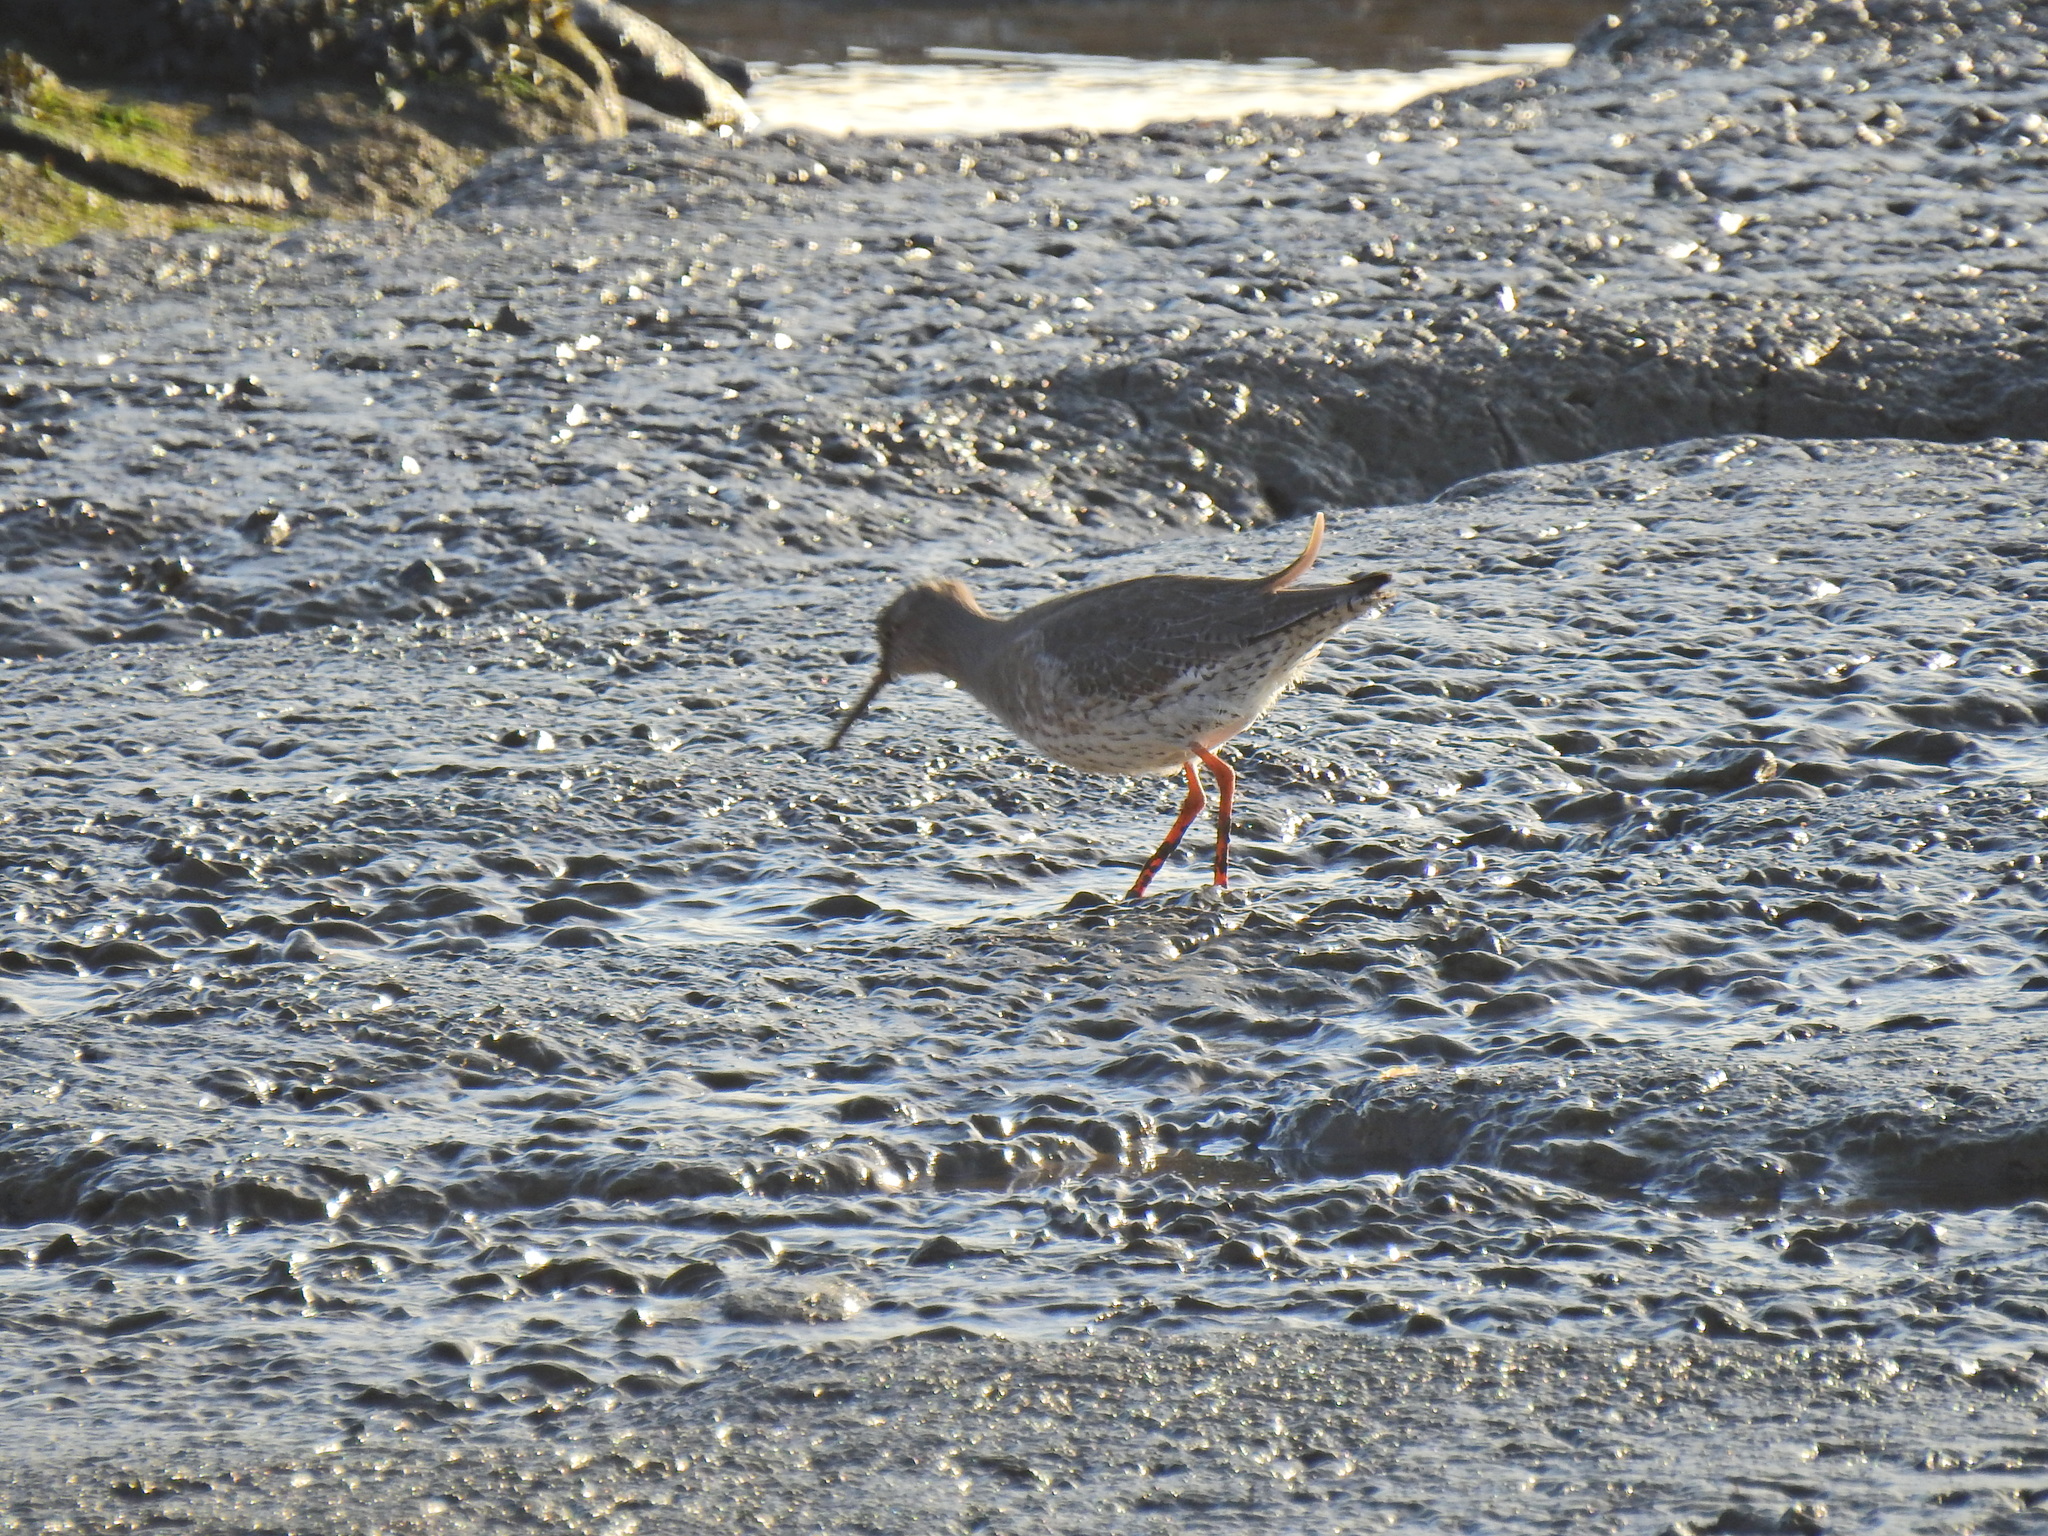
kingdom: Animalia
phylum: Chordata
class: Aves
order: Charadriiformes
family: Scolopacidae
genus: Tringa
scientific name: Tringa totanus
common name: Common redshank
